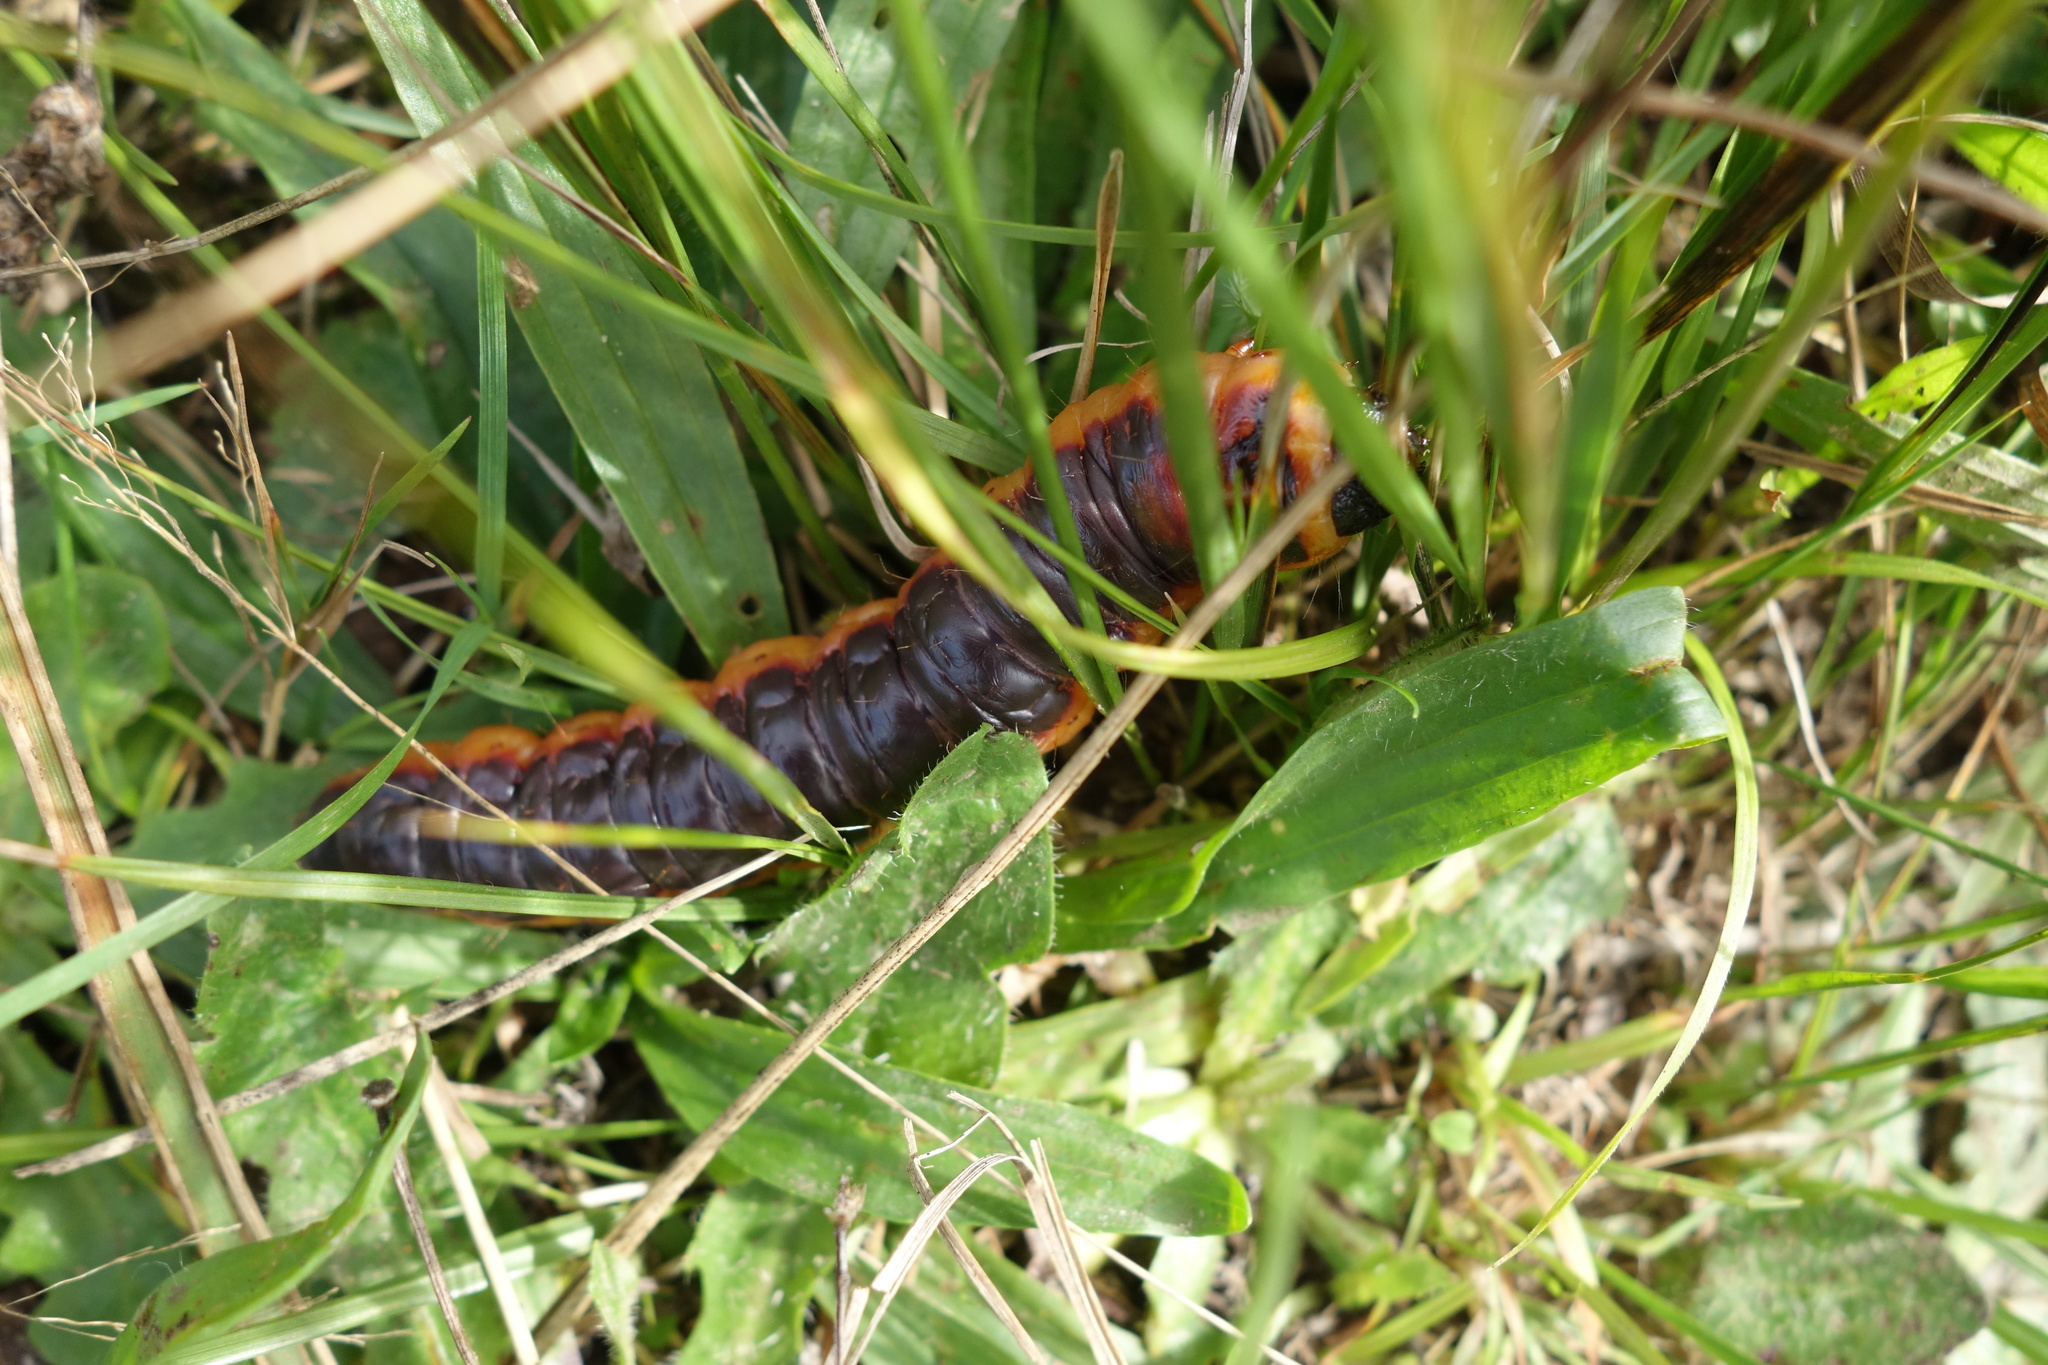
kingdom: Animalia
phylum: Arthropoda
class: Insecta
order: Lepidoptera
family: Cossidae
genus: Cossus
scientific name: Cossus cossus
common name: Goat moth
